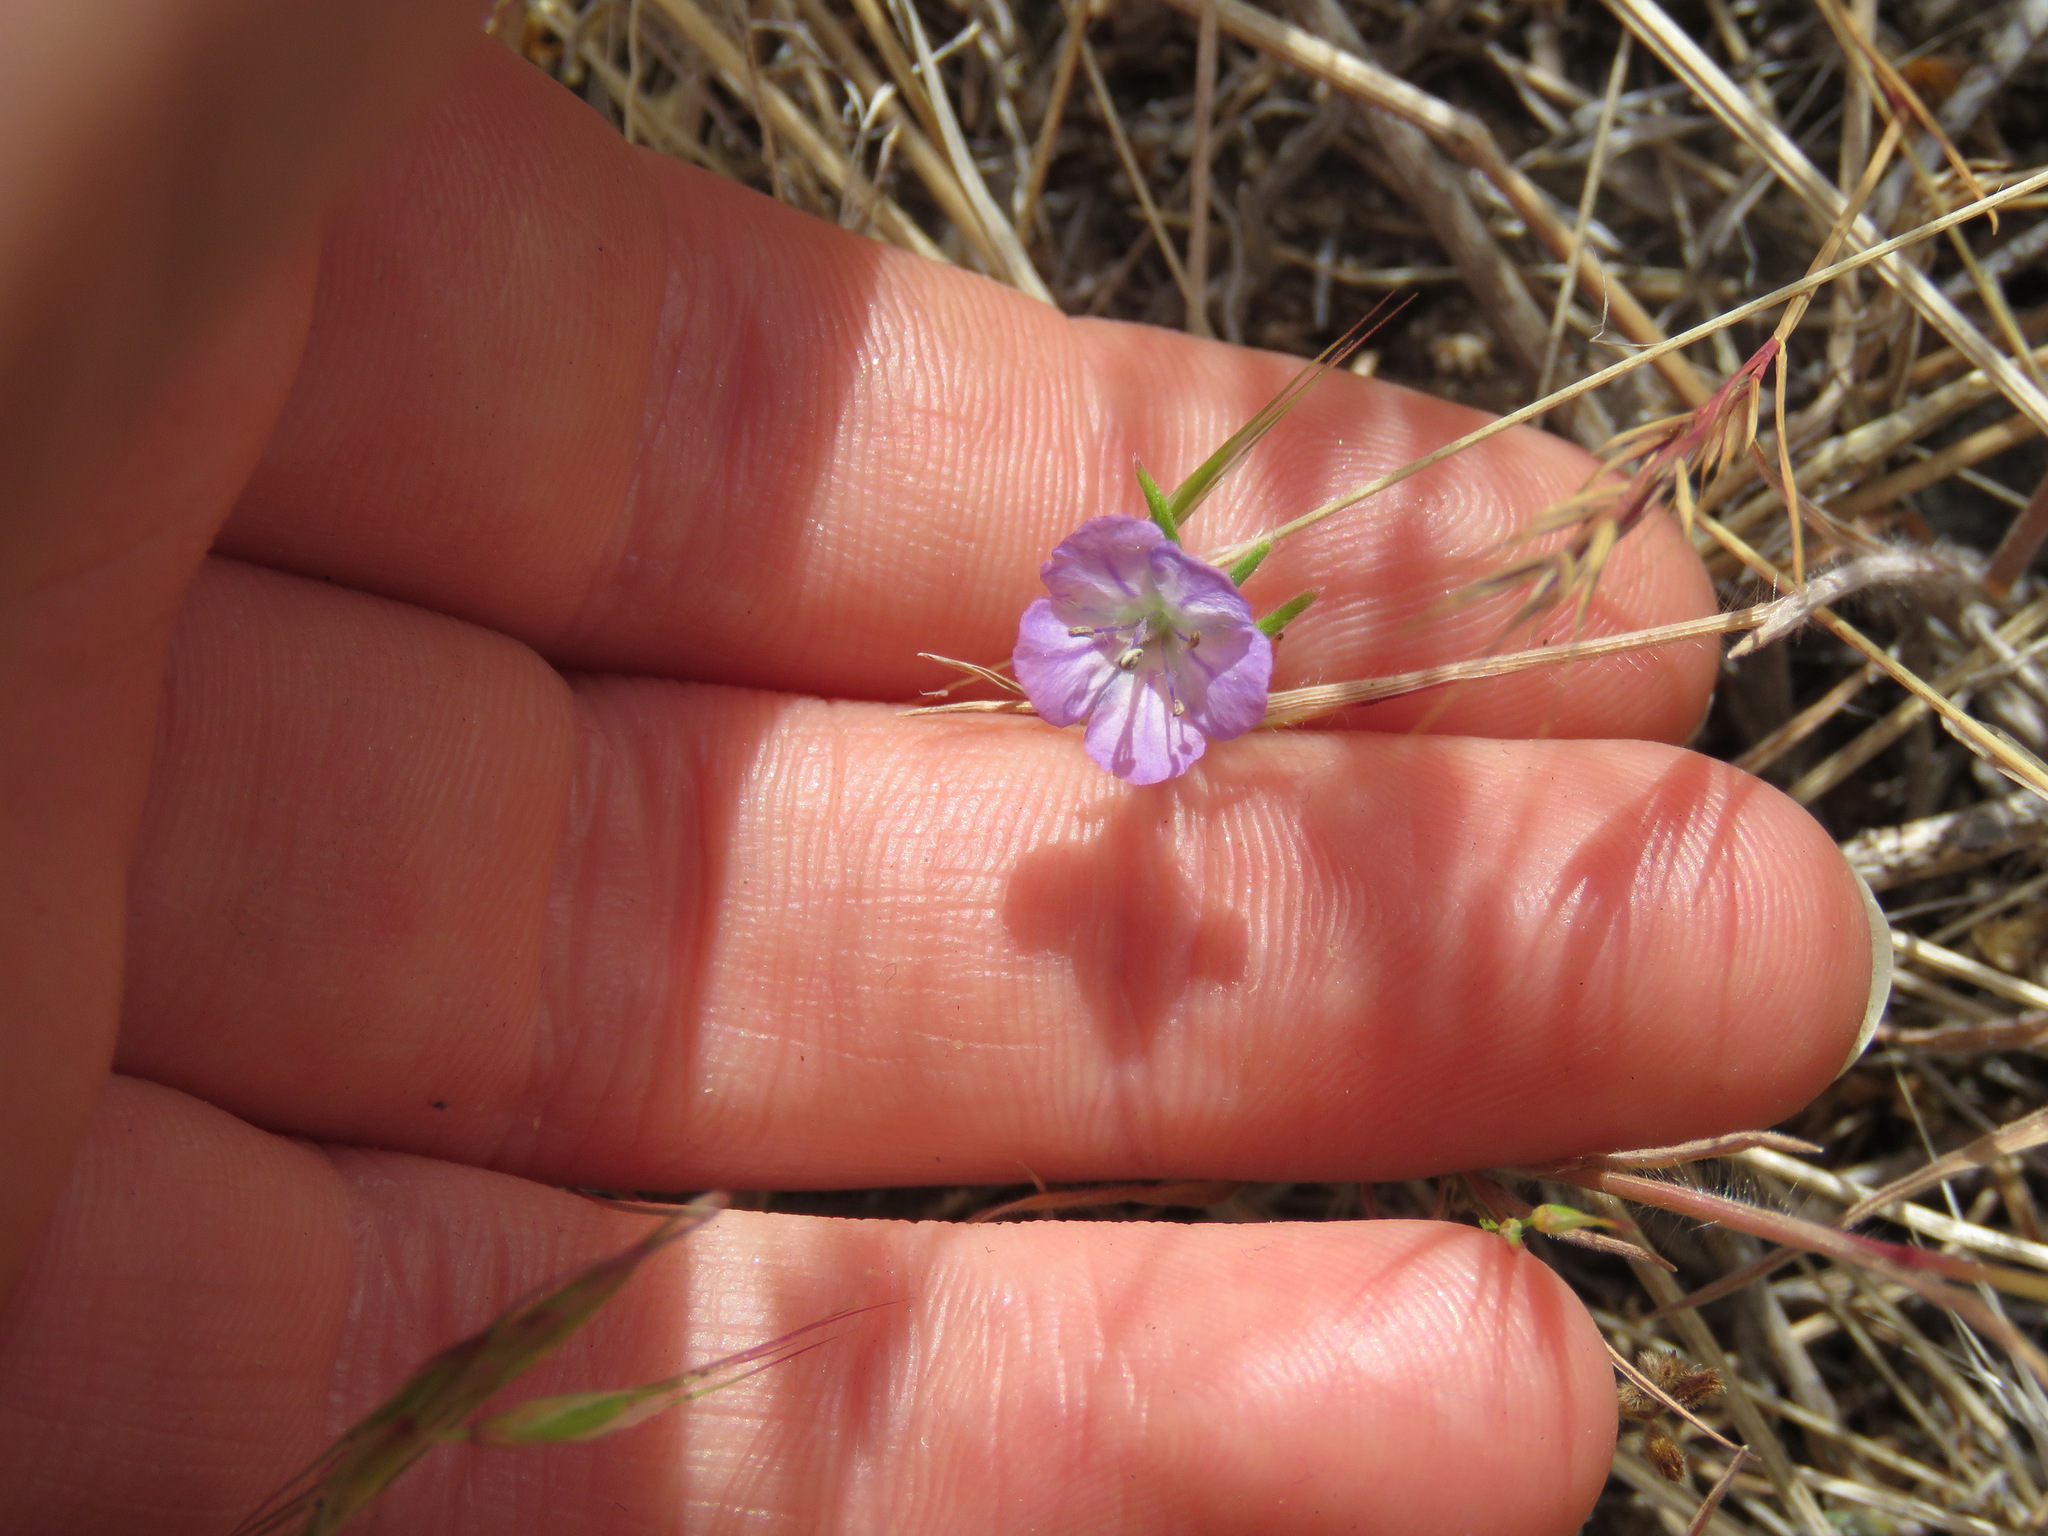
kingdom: Plantae
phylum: Tracheophyta
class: Magnoliopsida
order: Boraginales
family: Hydrophyllaceae
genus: Phacelia
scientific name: Phacelia linearis
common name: Linear-leaved phacelia
